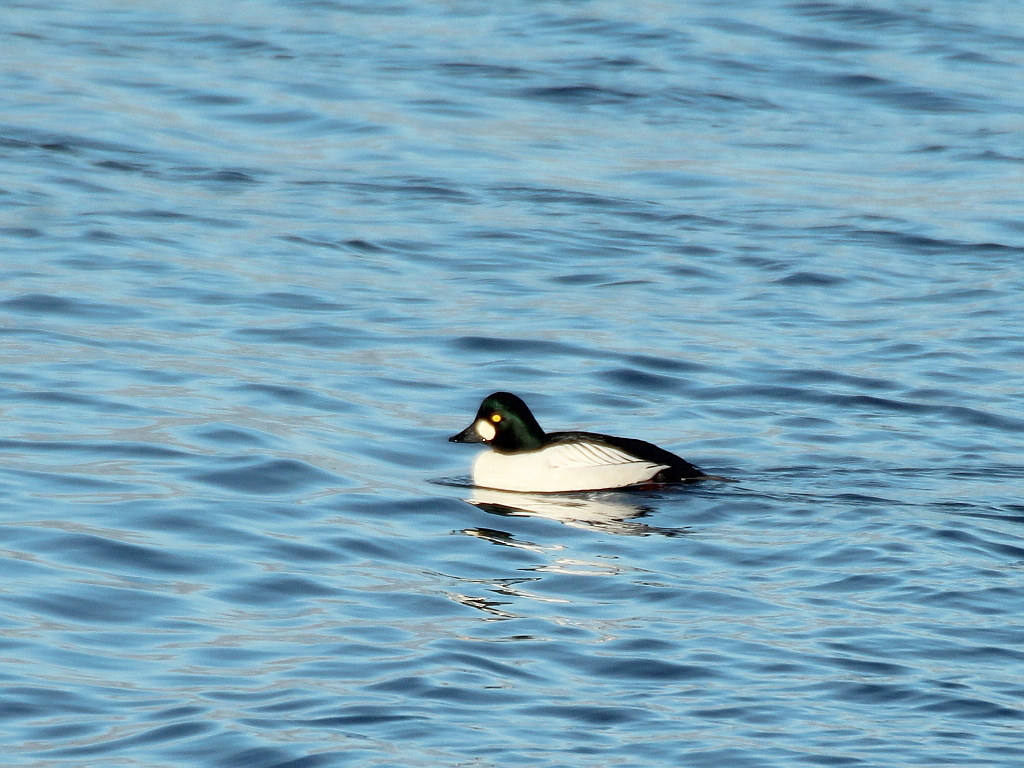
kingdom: Animalia
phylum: Chordata
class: Aves
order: Anseriformes
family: Anatidae
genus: Bucephala
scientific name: Bucephala clangula
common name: Common goldeneye
